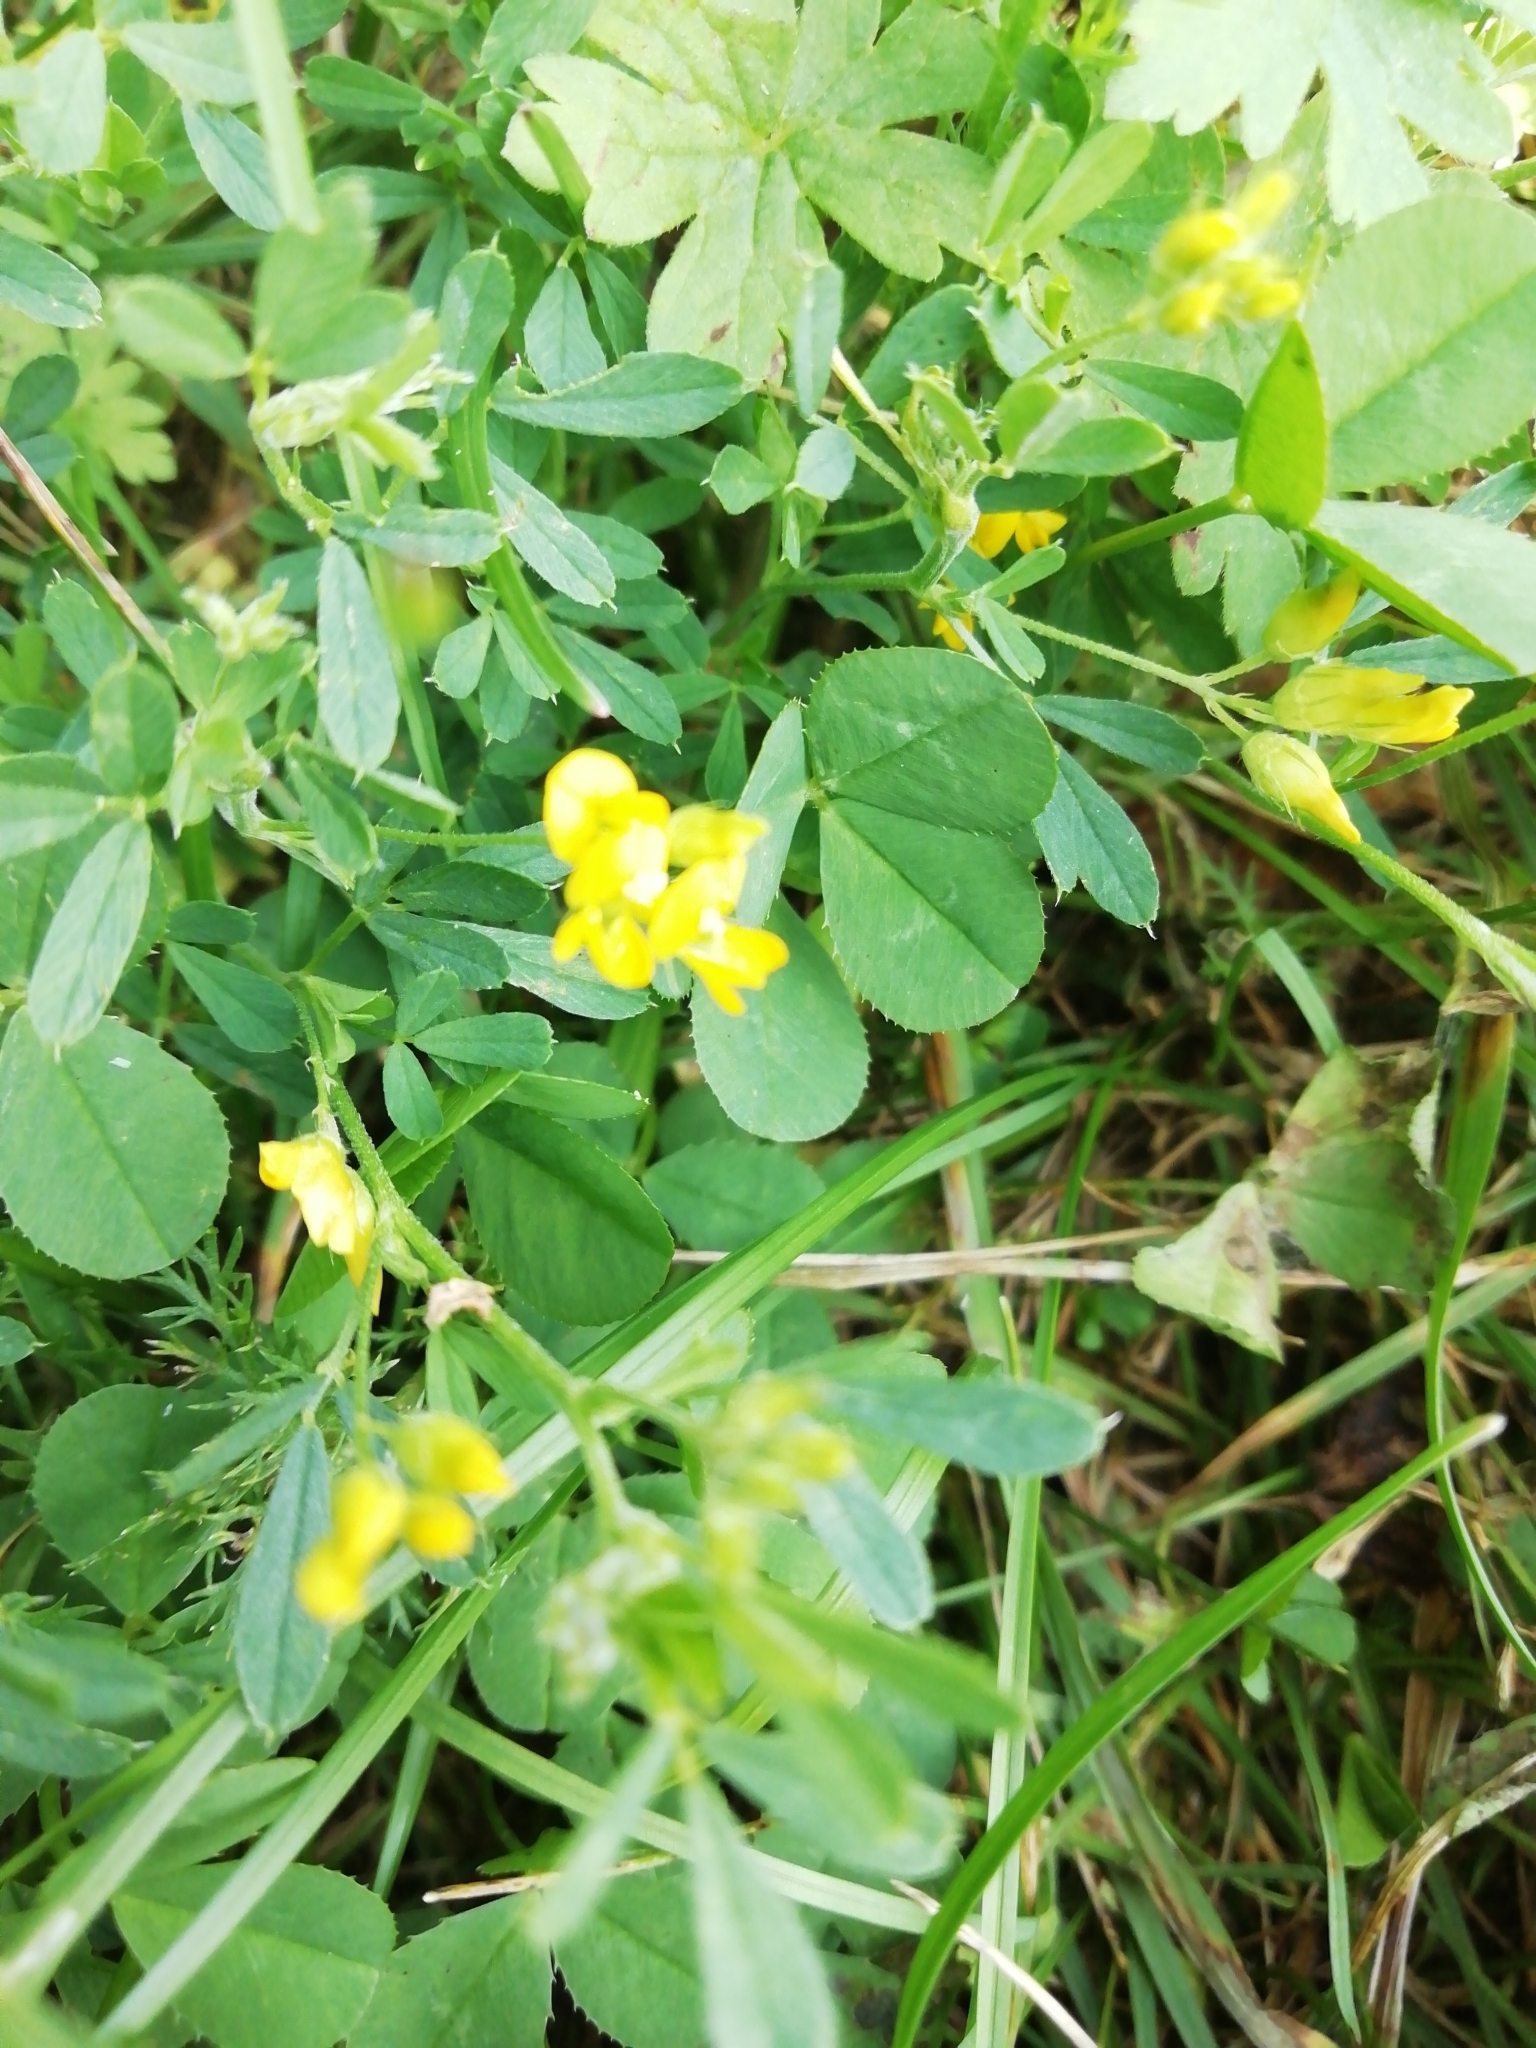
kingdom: Plantae
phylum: Tracheophyta
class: Magnoliopsida
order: Fabales
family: Fabaceae
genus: Medicago
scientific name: Medicago falcata
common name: Sickle medick
